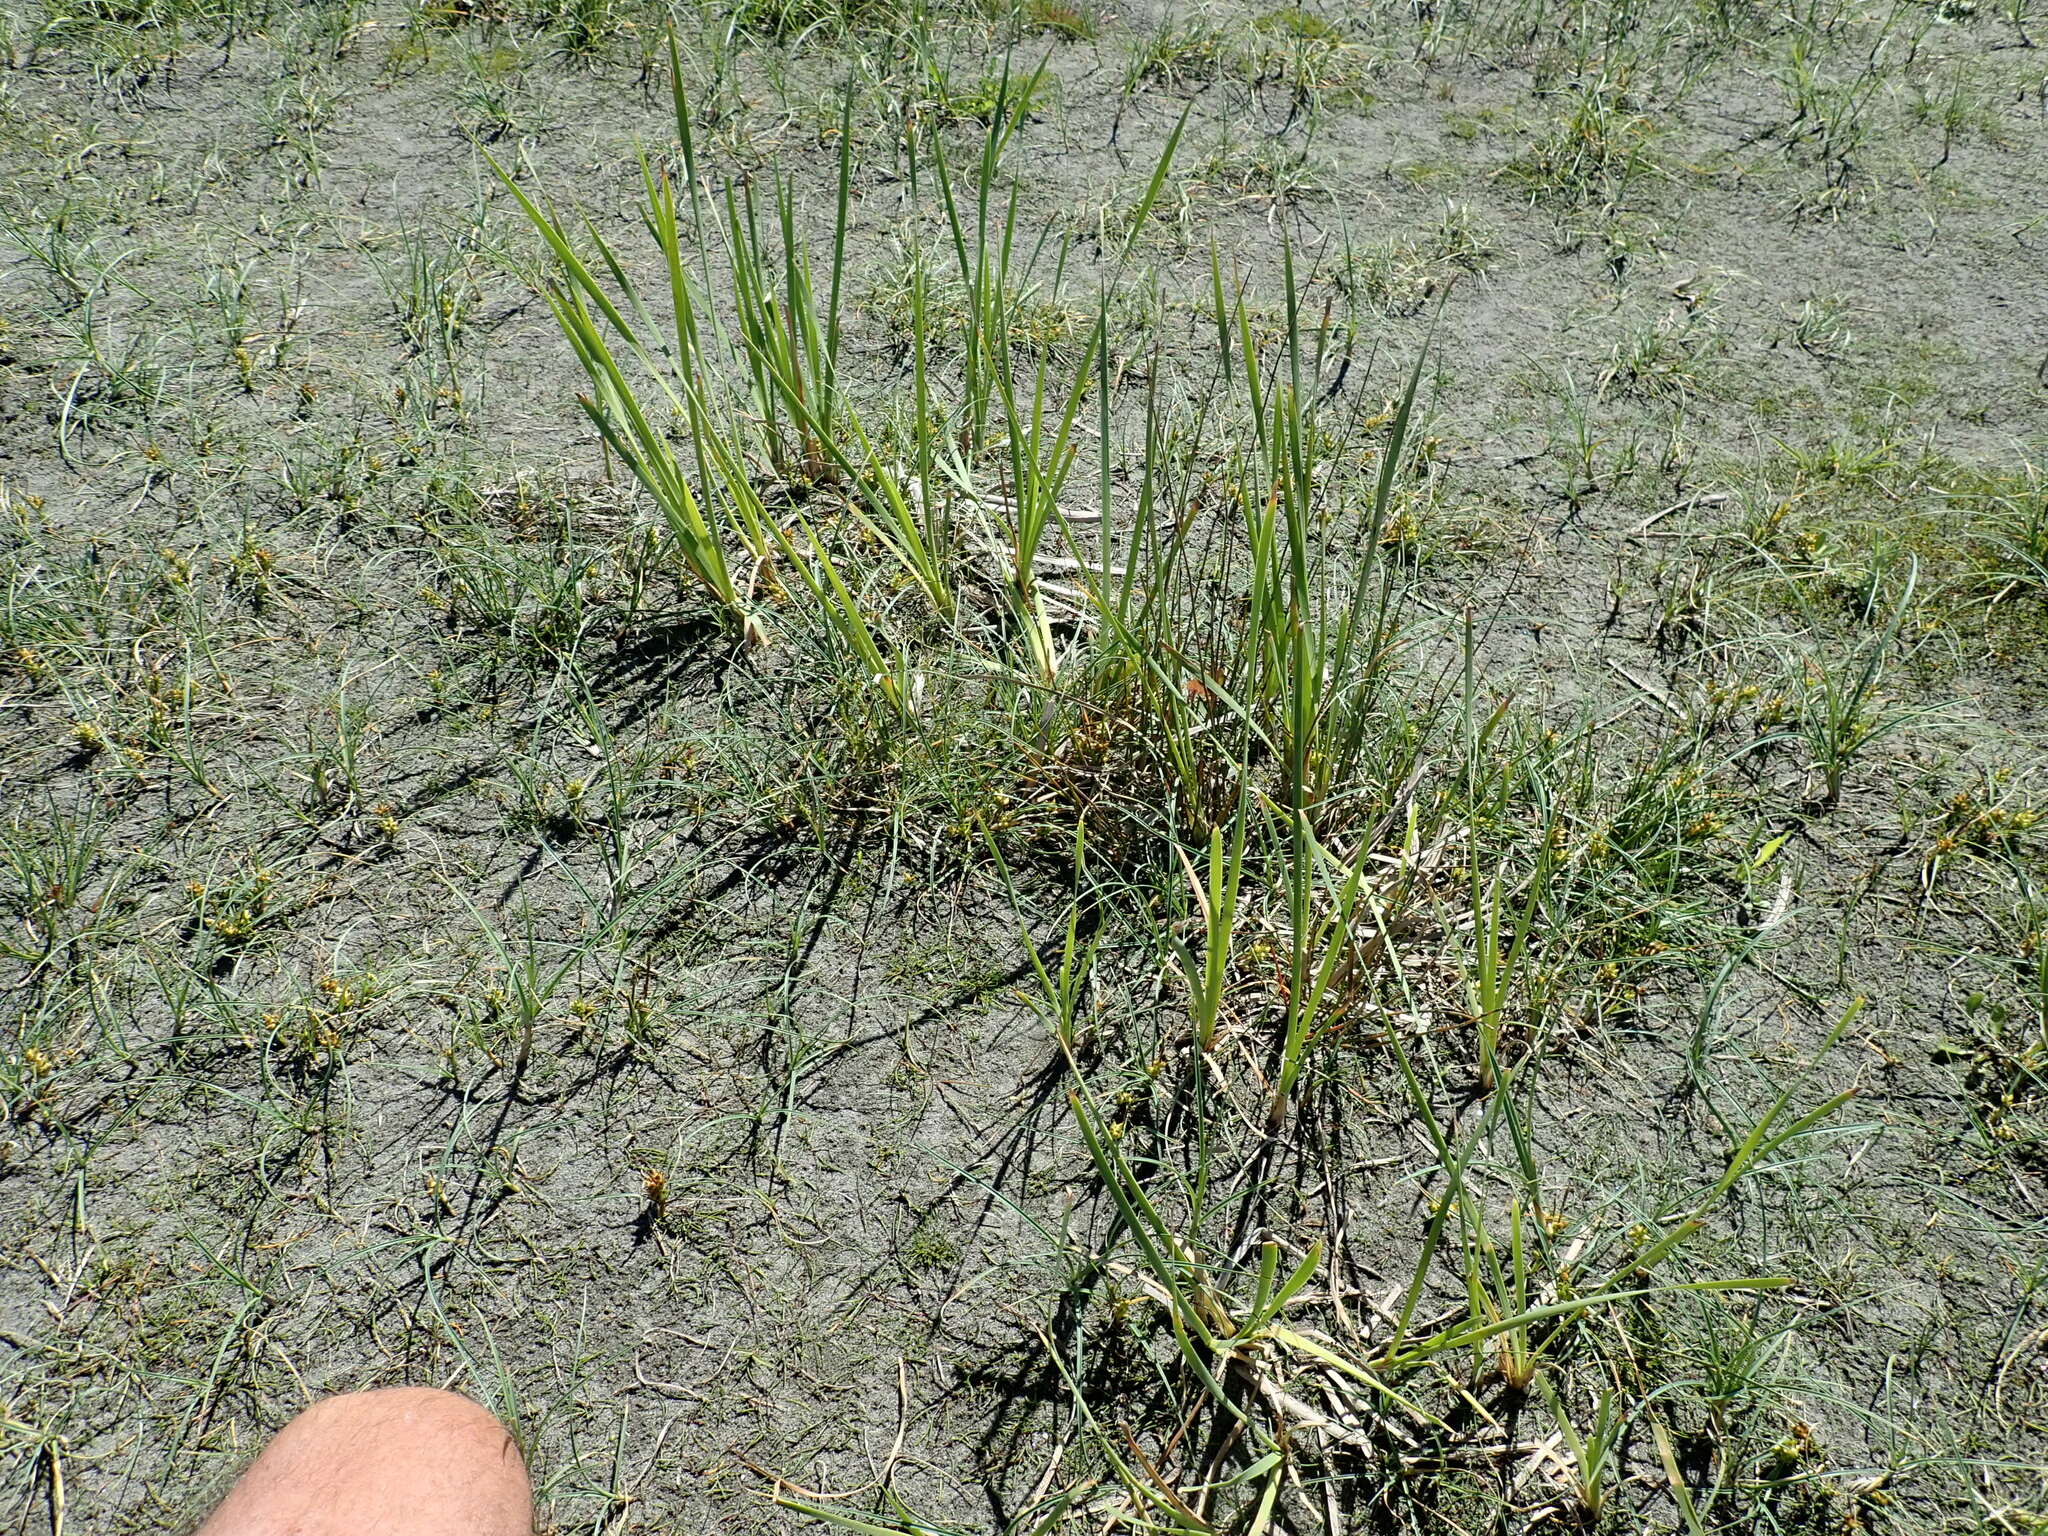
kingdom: Plantae
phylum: Tracheophyta
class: Liliopsida
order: Poales
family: Typhaceae
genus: Typha
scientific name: Typha orientalis
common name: Bullrush
